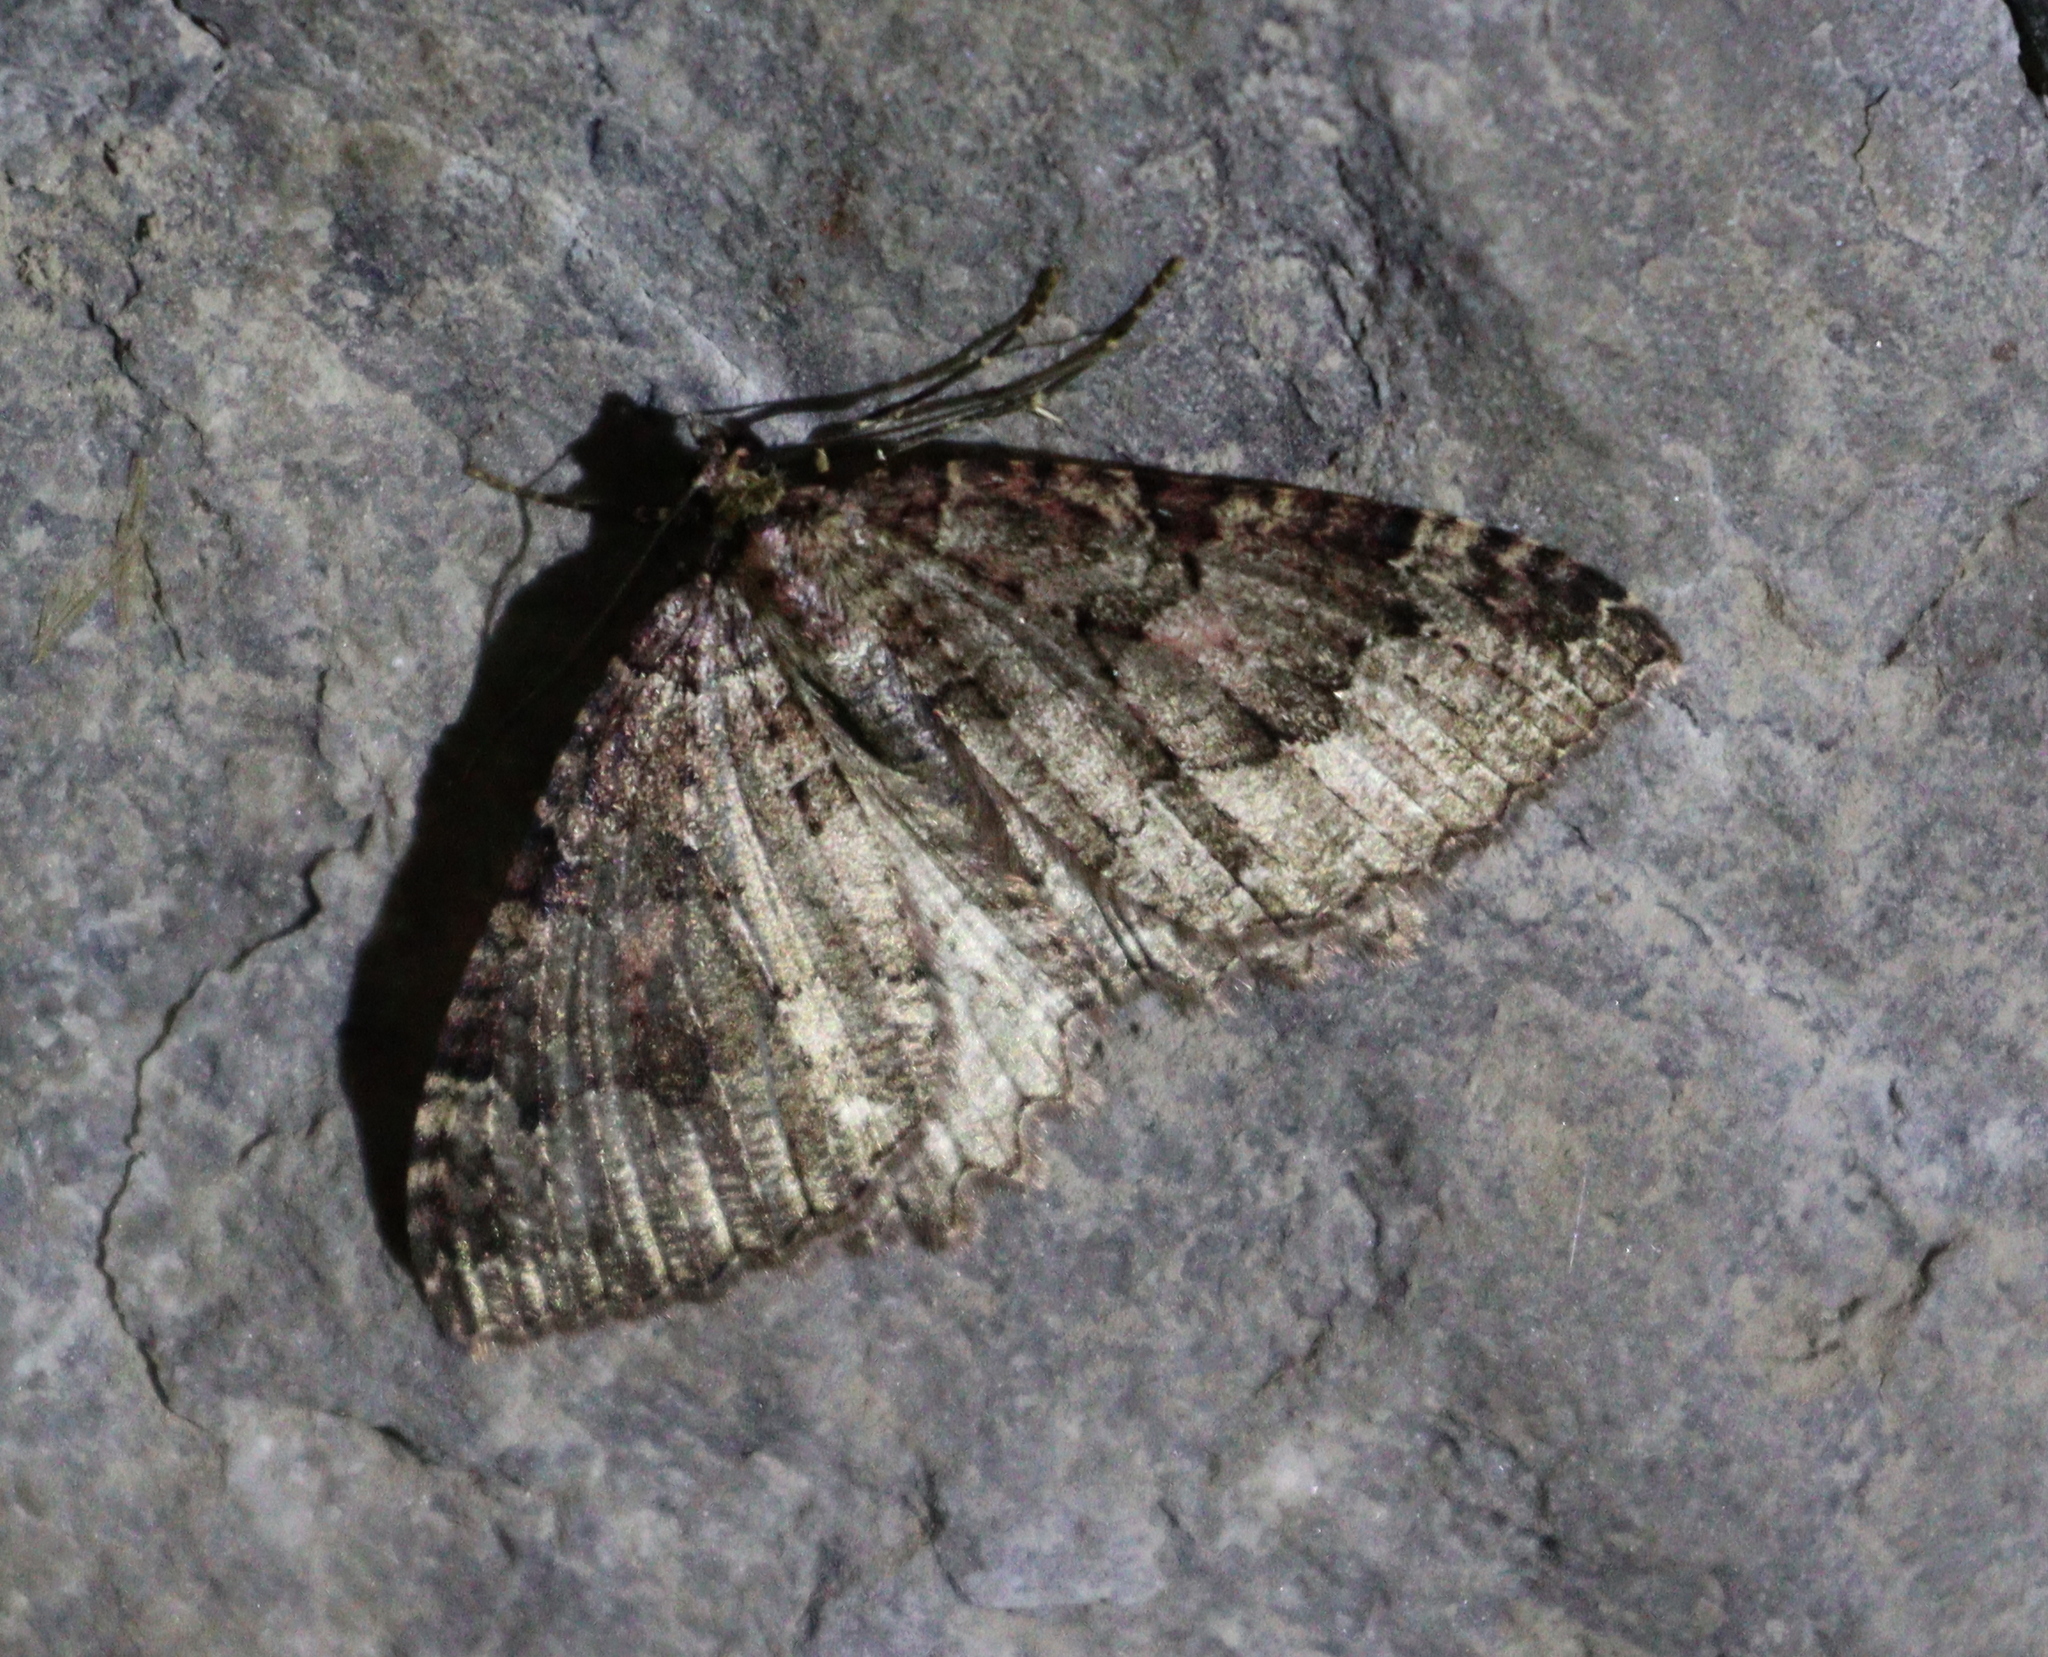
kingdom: Animalia
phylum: Arthropoda
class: Insecta
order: Lepidoptera
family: Geometridae
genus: Triphosa
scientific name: Triphosa dubitata
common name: Tissue
